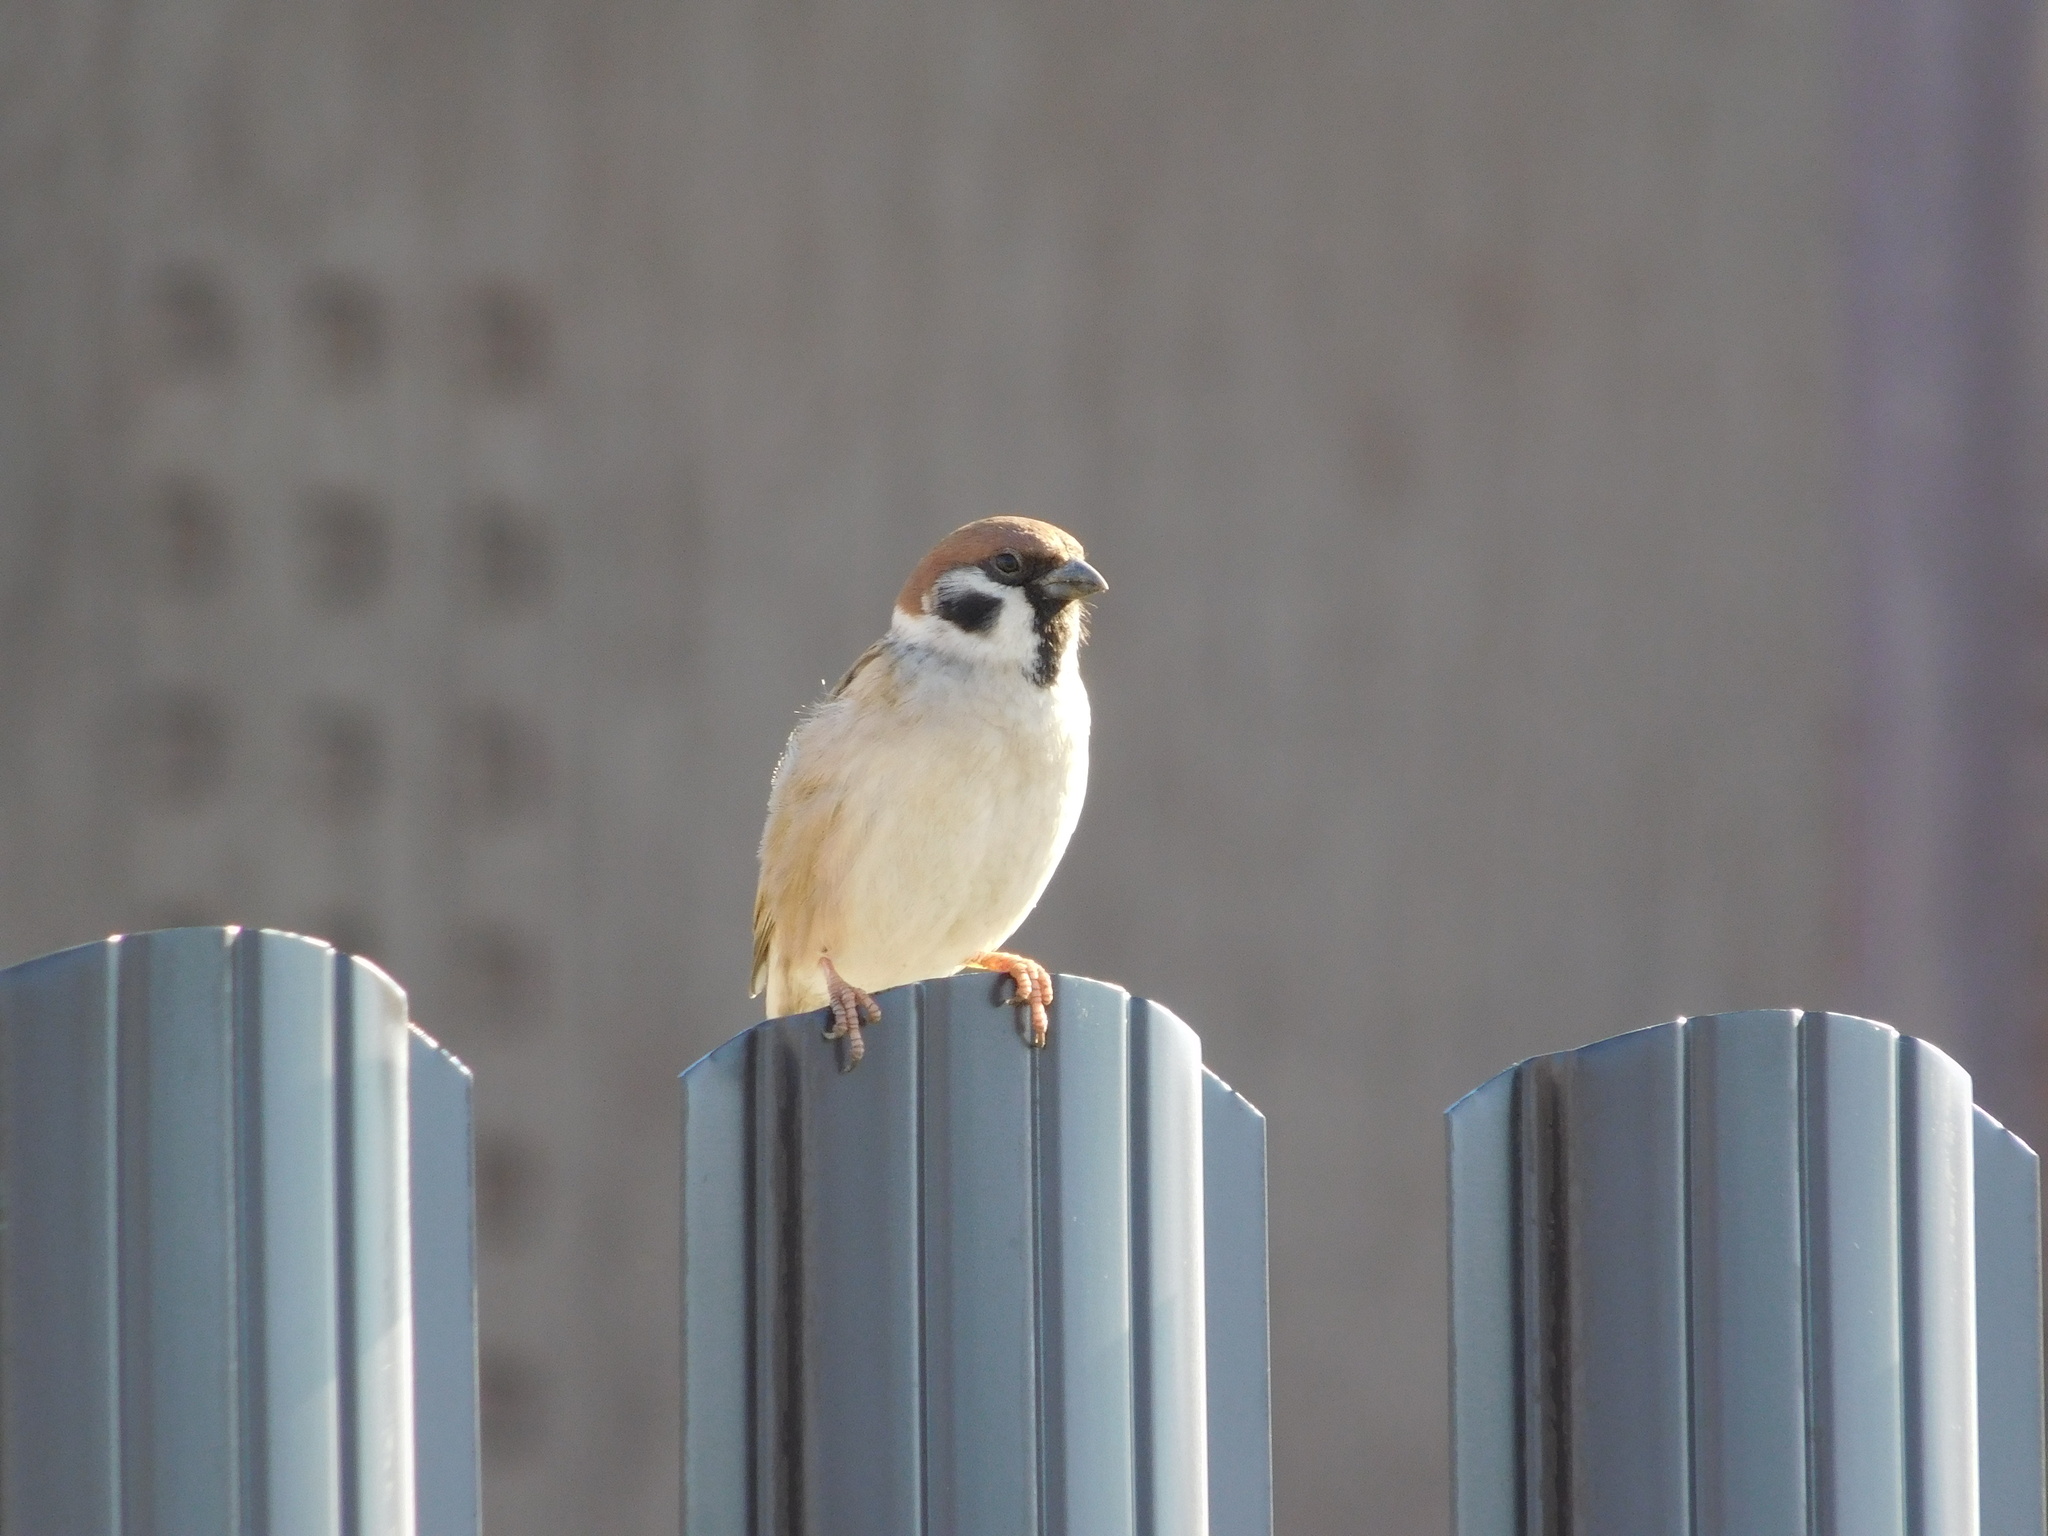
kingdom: Animalia
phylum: Chordata
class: Aves
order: Passeriformes
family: Passeridae
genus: Passer
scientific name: Passer montanus
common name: Eurasian tree sparrow
